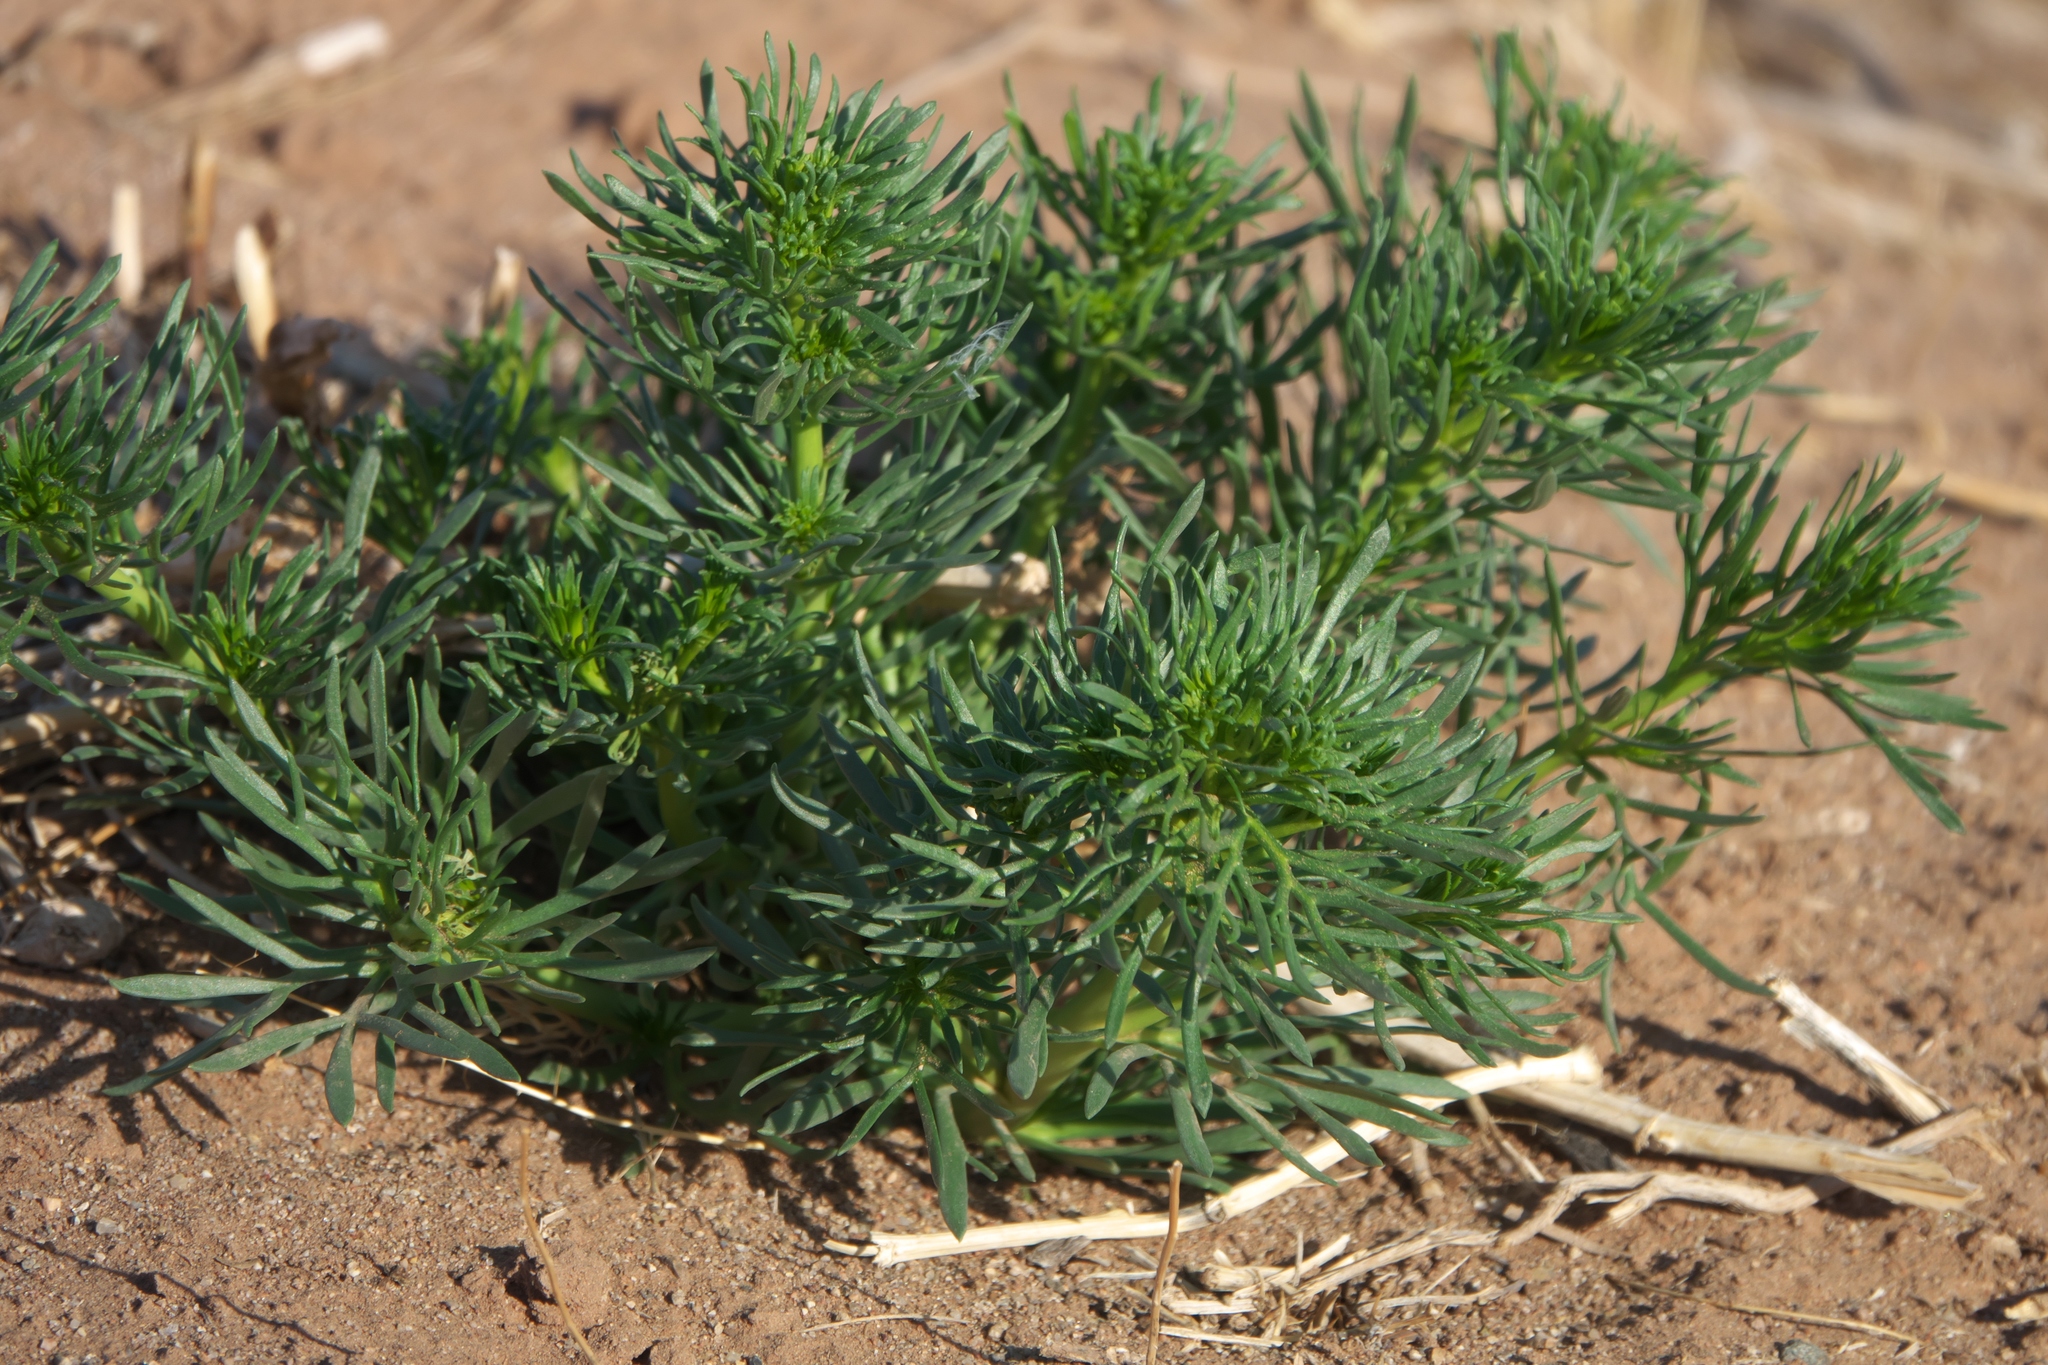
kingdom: Plantae
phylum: Tracheophyta
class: Magnoliopsida
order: Sapindales
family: Tetradiclidaceae
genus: Peganum
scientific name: Peganum harmala
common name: Harmal peganum
